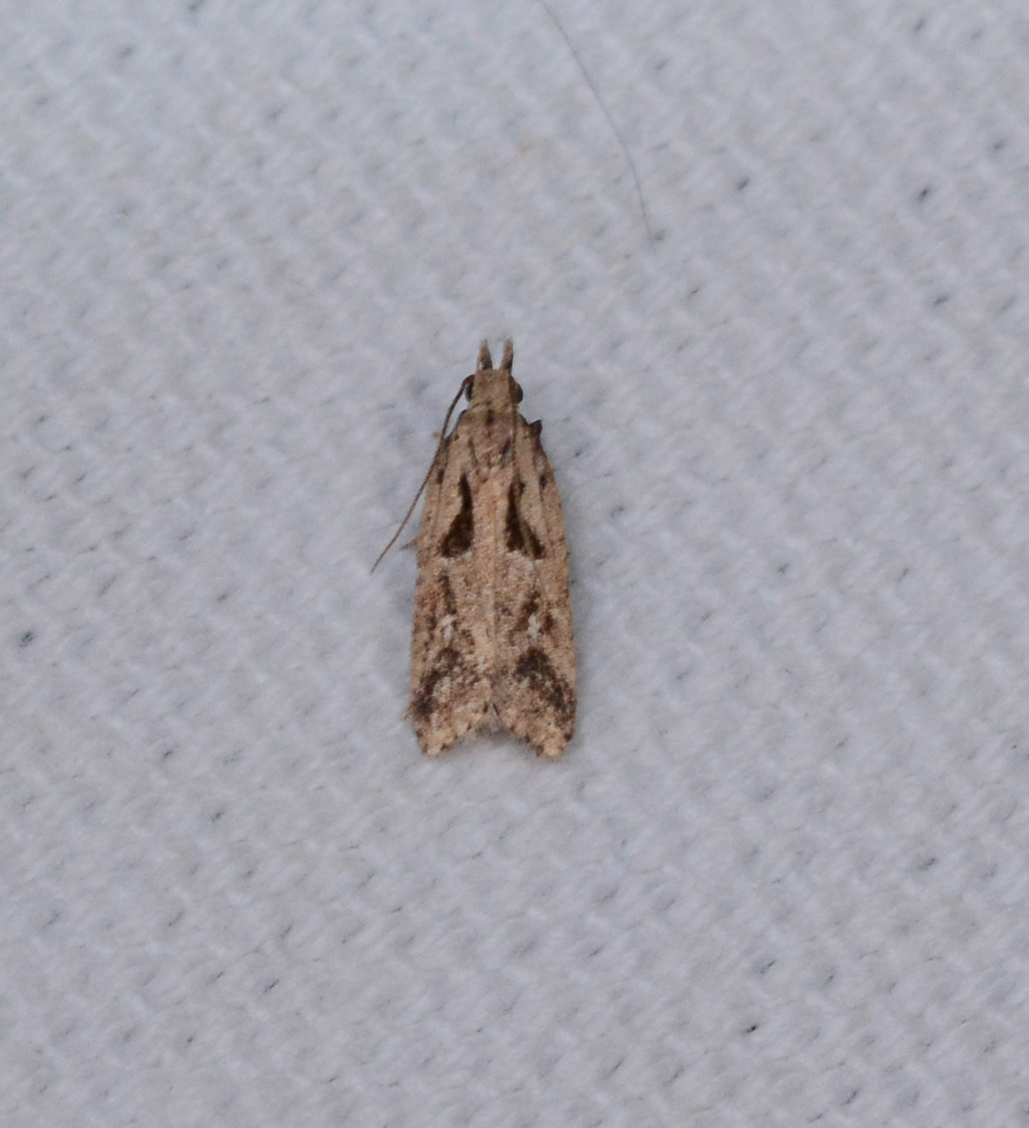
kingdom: Animalia
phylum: Arthropoda
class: Insecta
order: Lepidoptera
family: Gelechiidae
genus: Dichomeris
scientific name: Dichomeris aglaia
